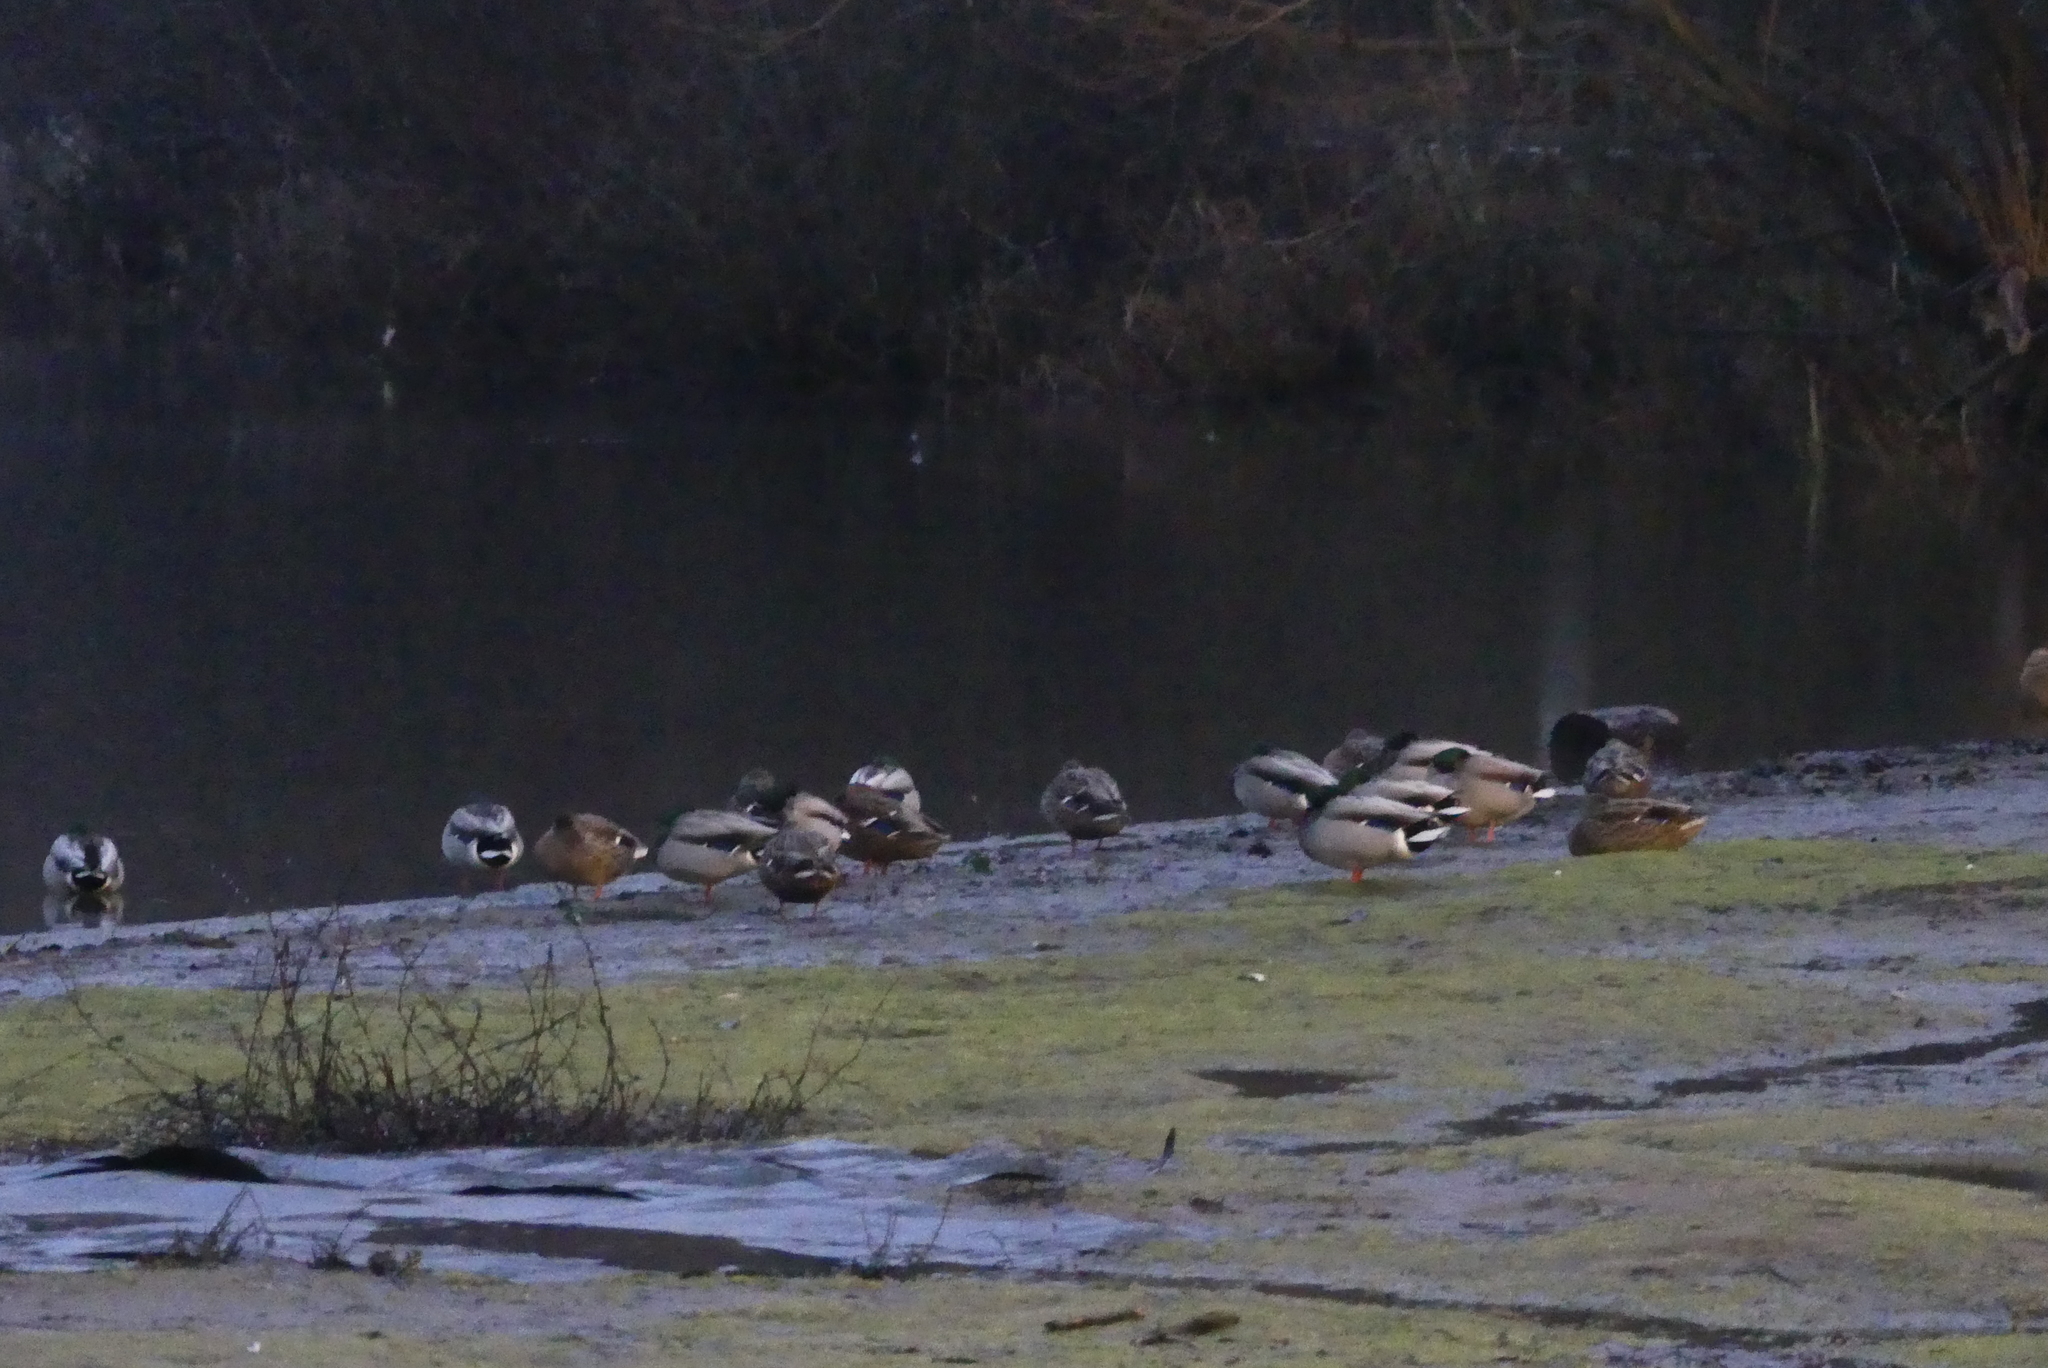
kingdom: Animalia
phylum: Chordata
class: Aves
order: Anseriformes
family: Anatidae
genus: Anas
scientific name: Anas platyrhynchos
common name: Mallard
